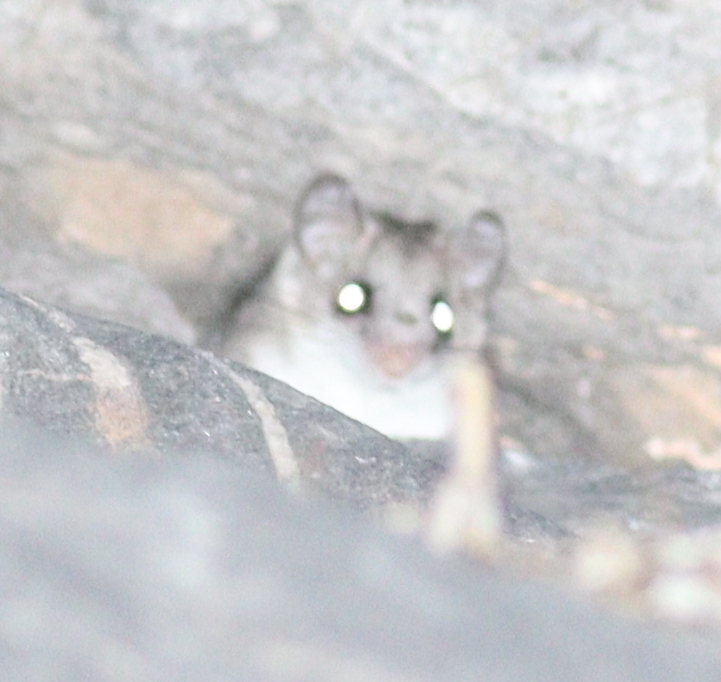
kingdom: Animalia
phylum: Chordata
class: Mammalia
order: Rodentia
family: Gliridae
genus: Dryomys
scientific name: Dryomys laniger
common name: Woolly forest dormouse
